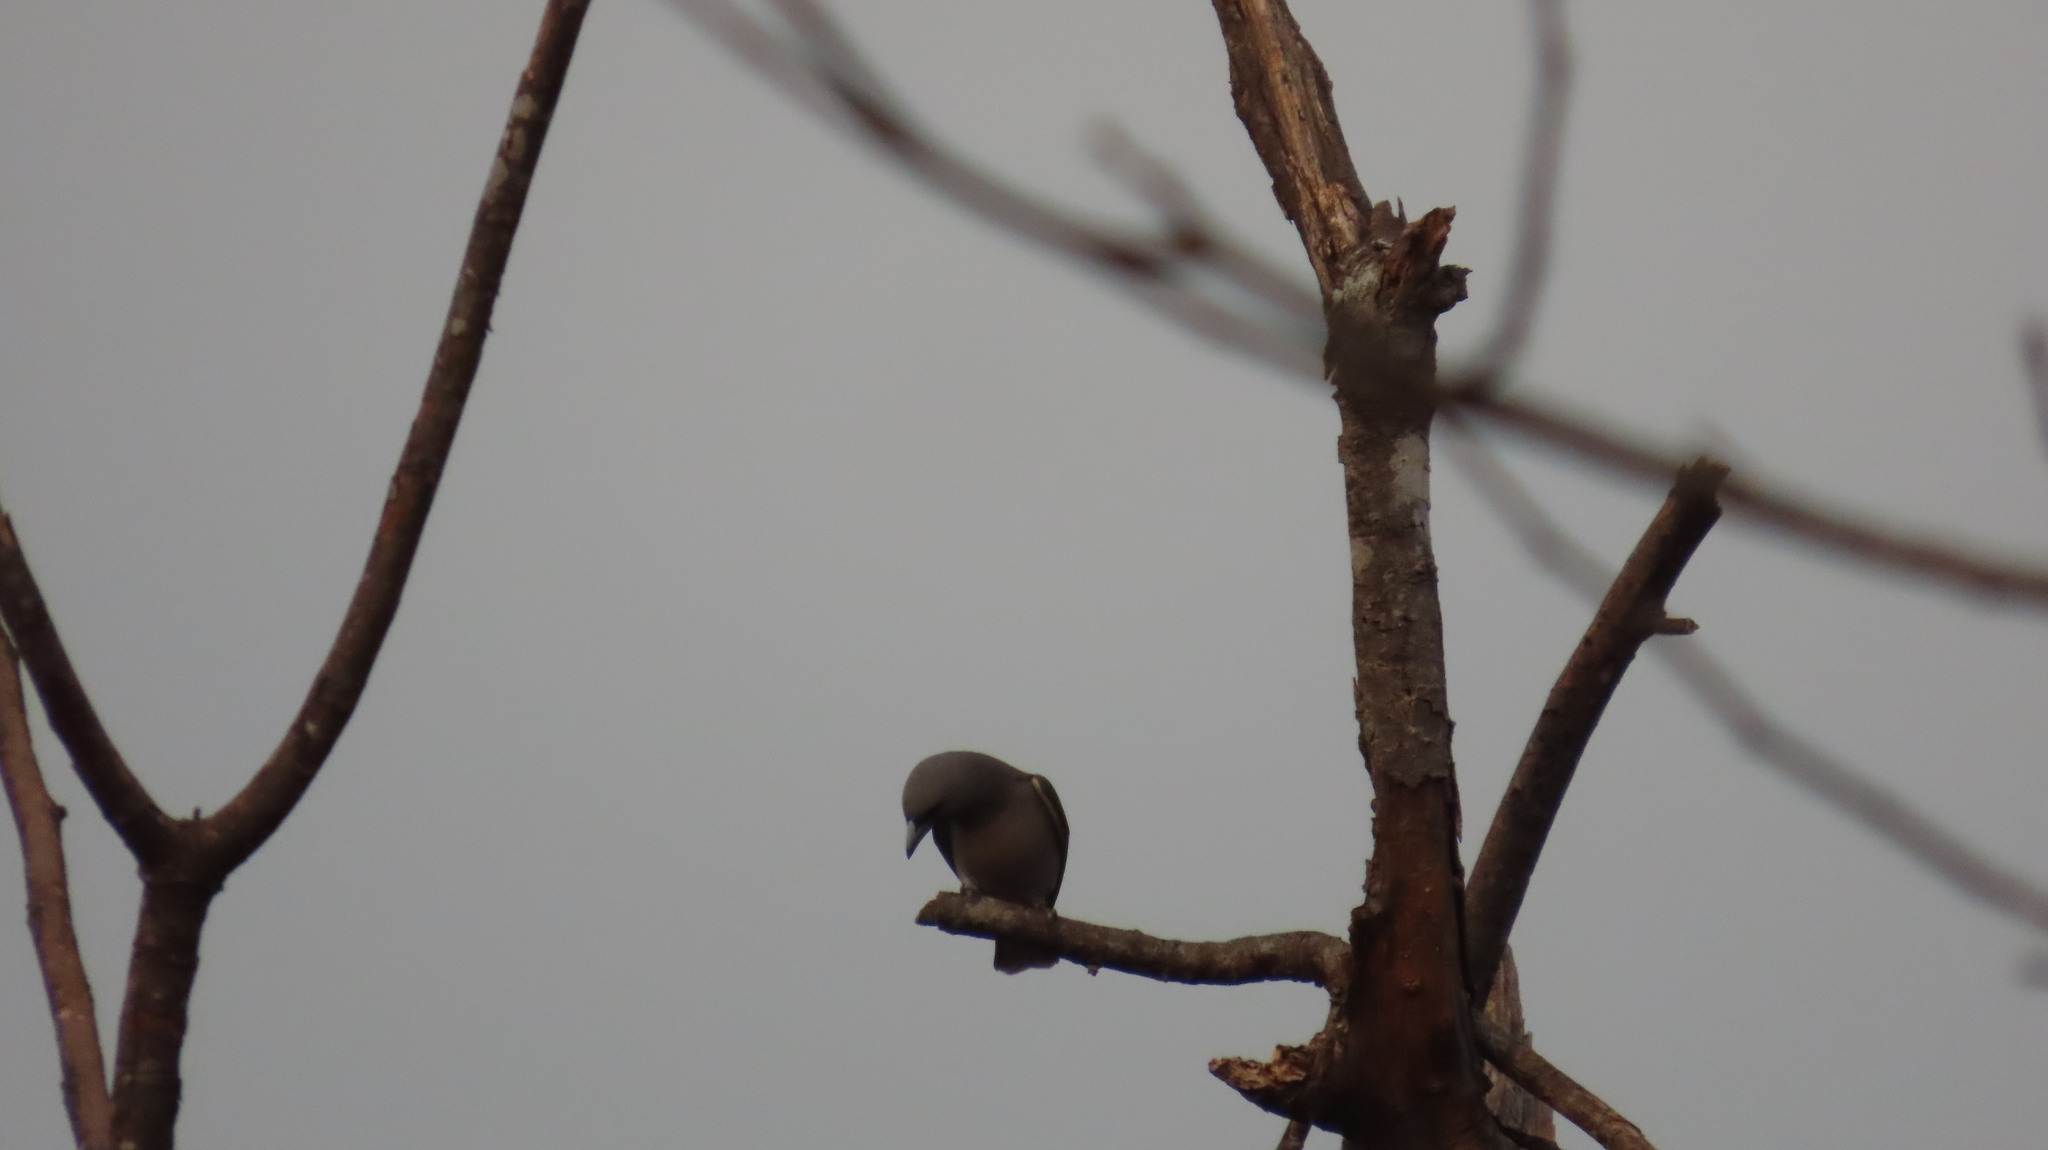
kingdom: Animalia
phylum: Chordata
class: Aves
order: Passeriformes
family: Artamidae
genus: Artamus
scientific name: Artamus fuscus
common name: Ashy woodswallow
